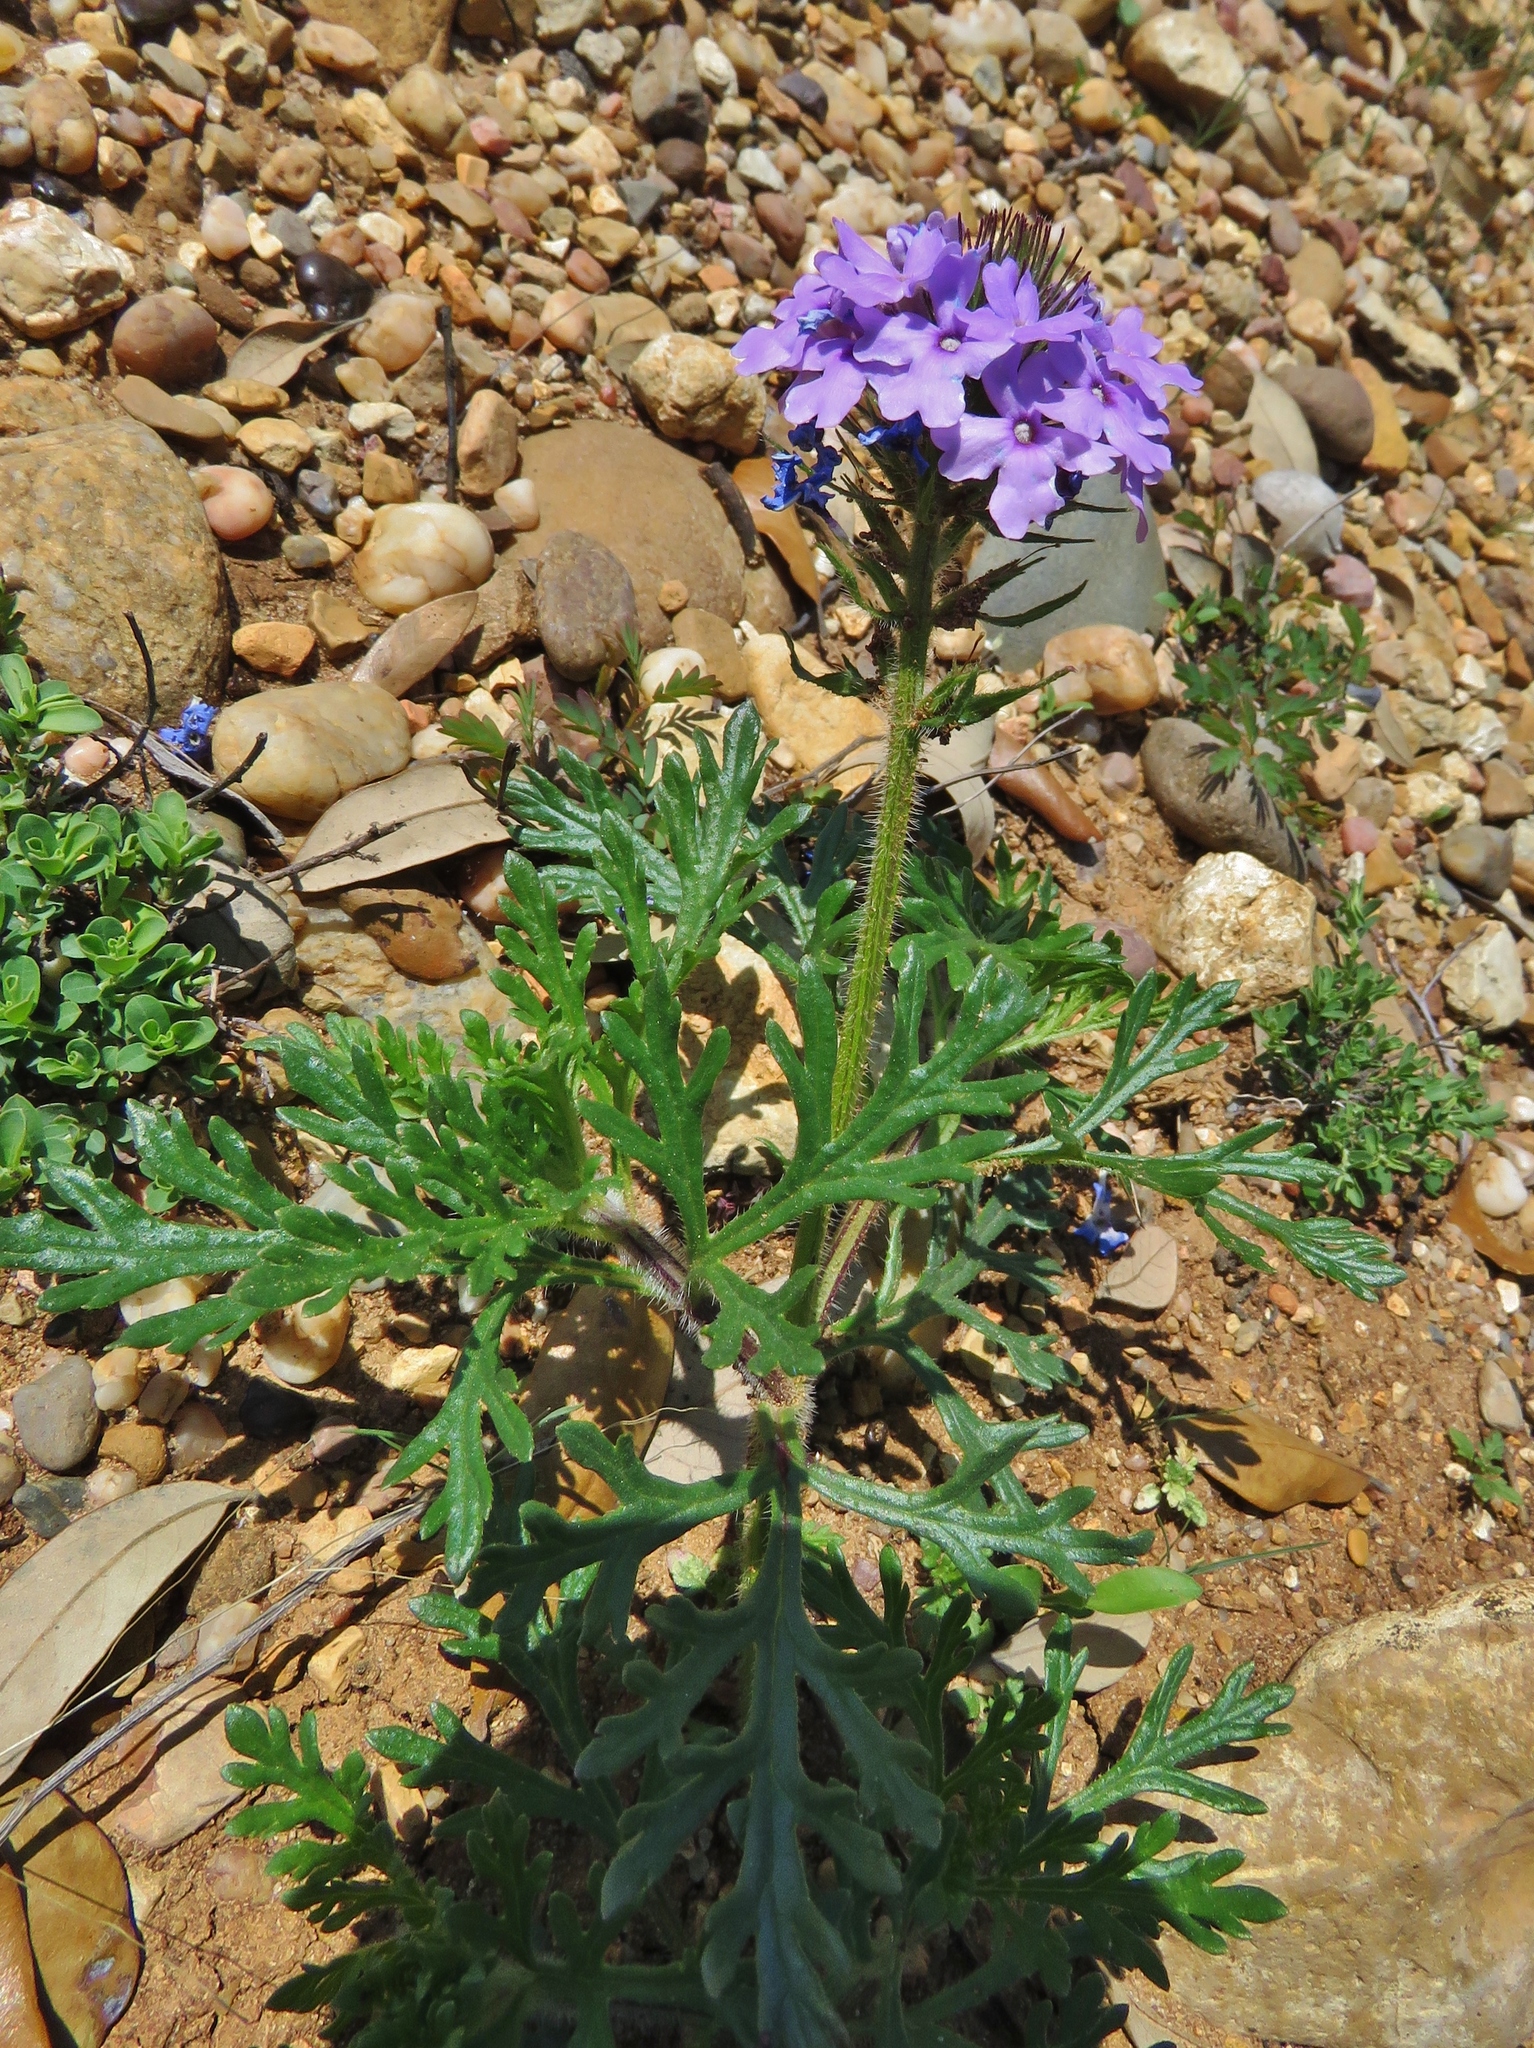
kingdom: Plantae
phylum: Tracheophyta
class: Magnoliopsida
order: Lamiales
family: Verbenaceae
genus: Verbena
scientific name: Verbena bipinnatifida
